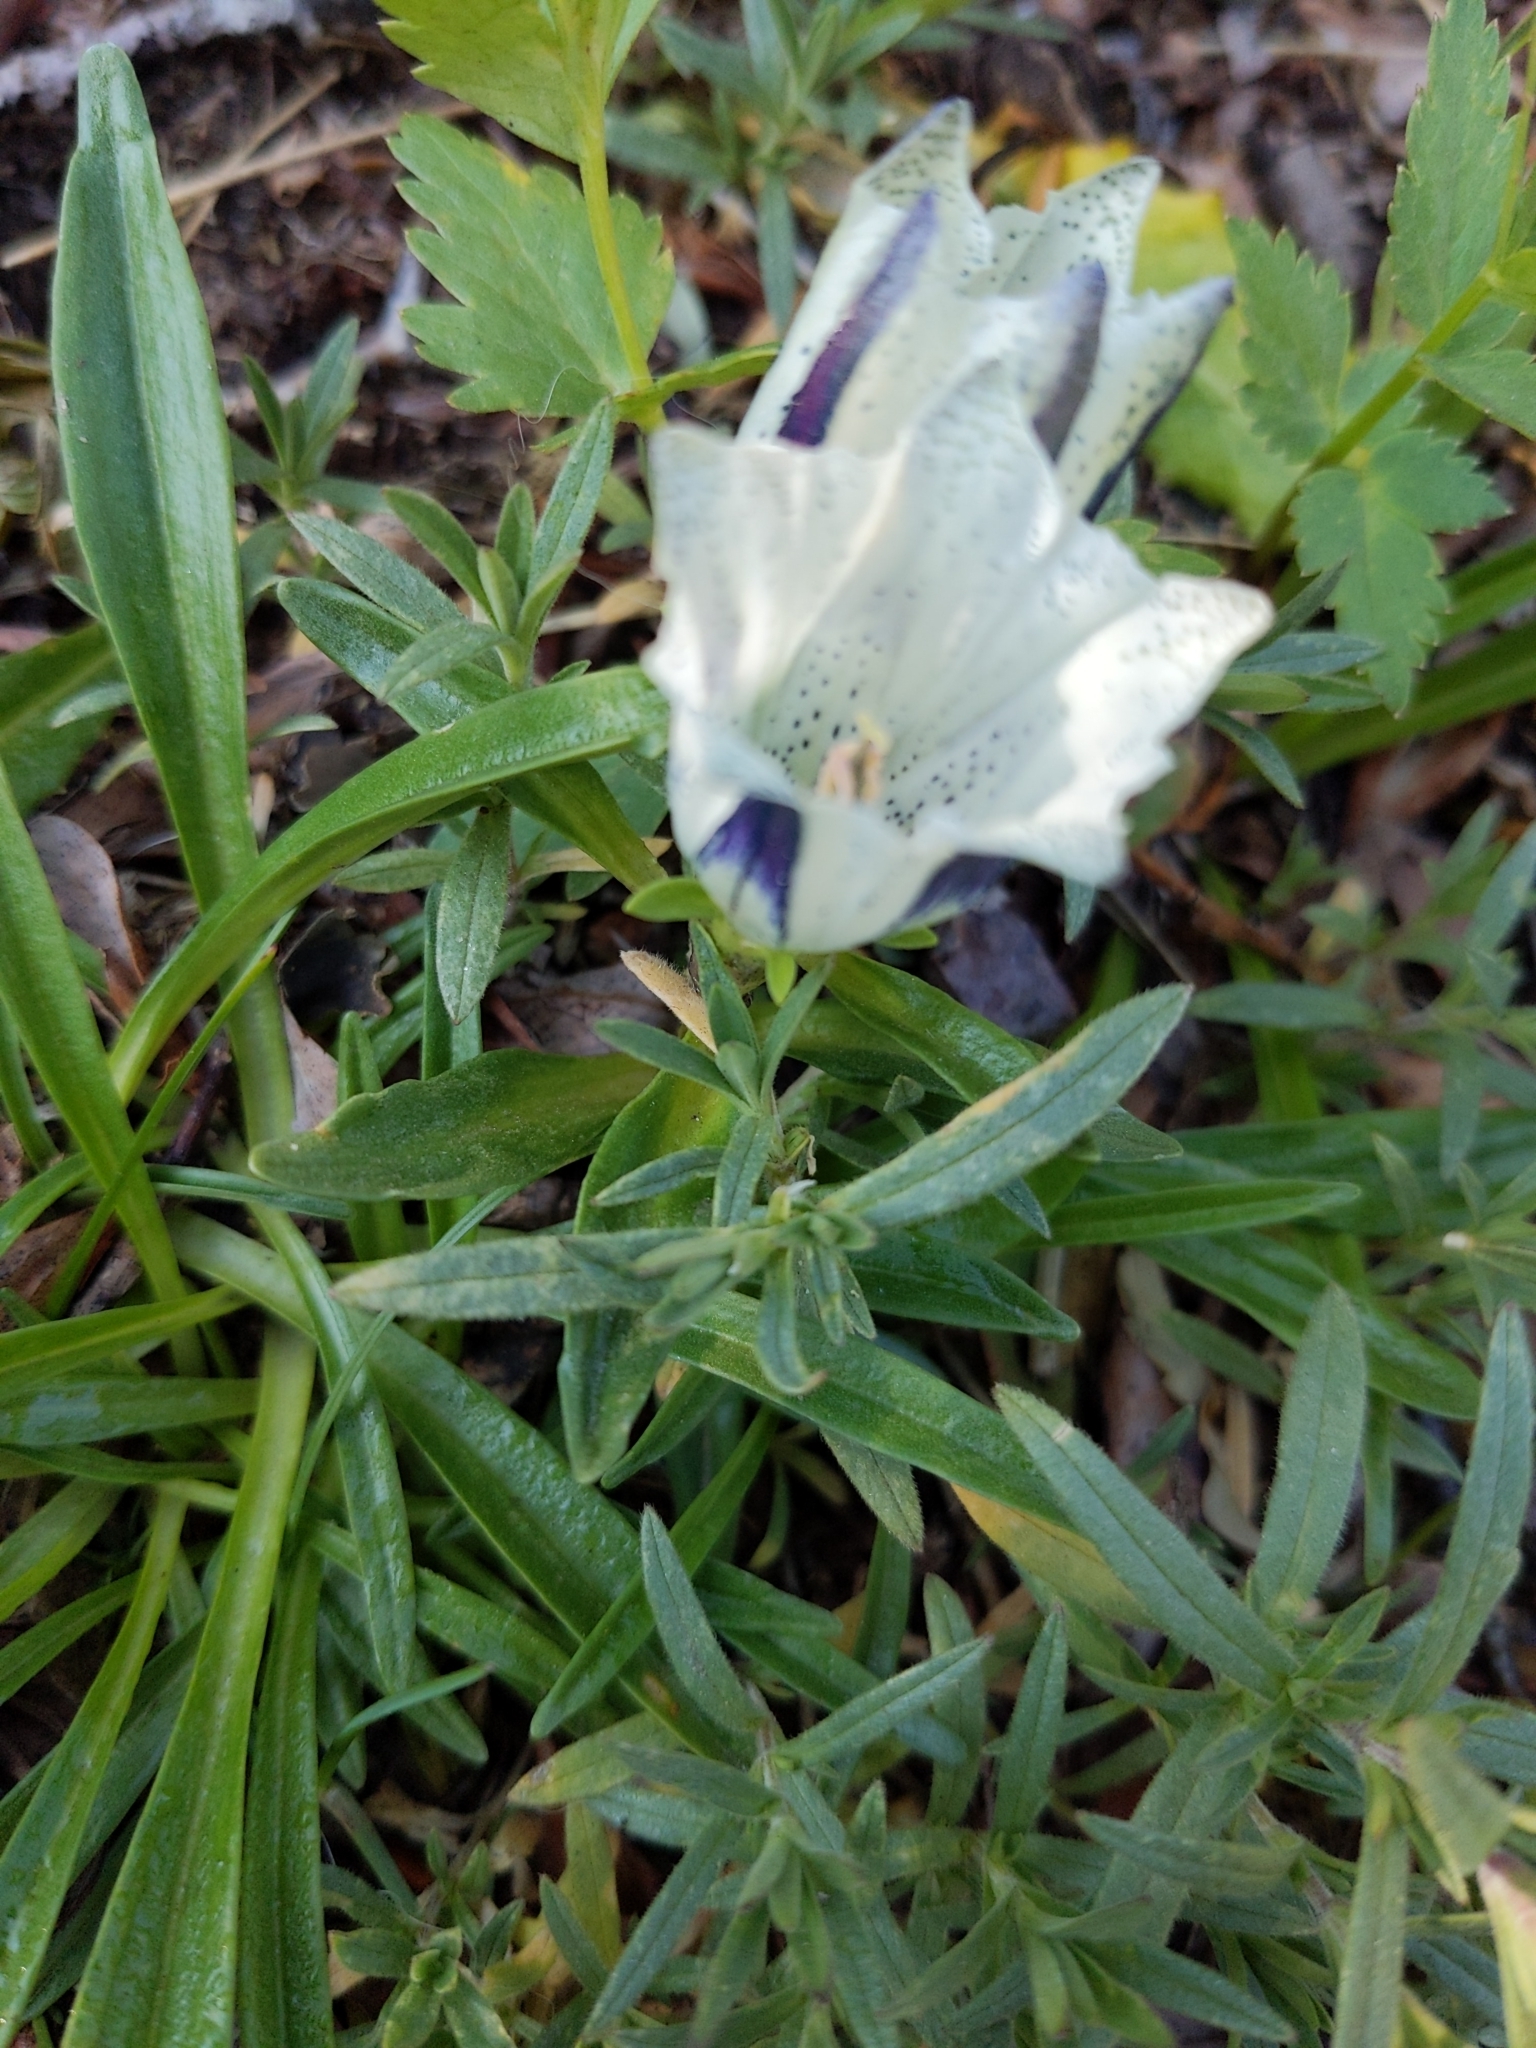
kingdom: Plantae
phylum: Tracheophyta
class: Magnoliopsida
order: Gentianales
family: Gentianaceae
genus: Gentiana
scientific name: Gentiana algida
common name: Arctic gentian
